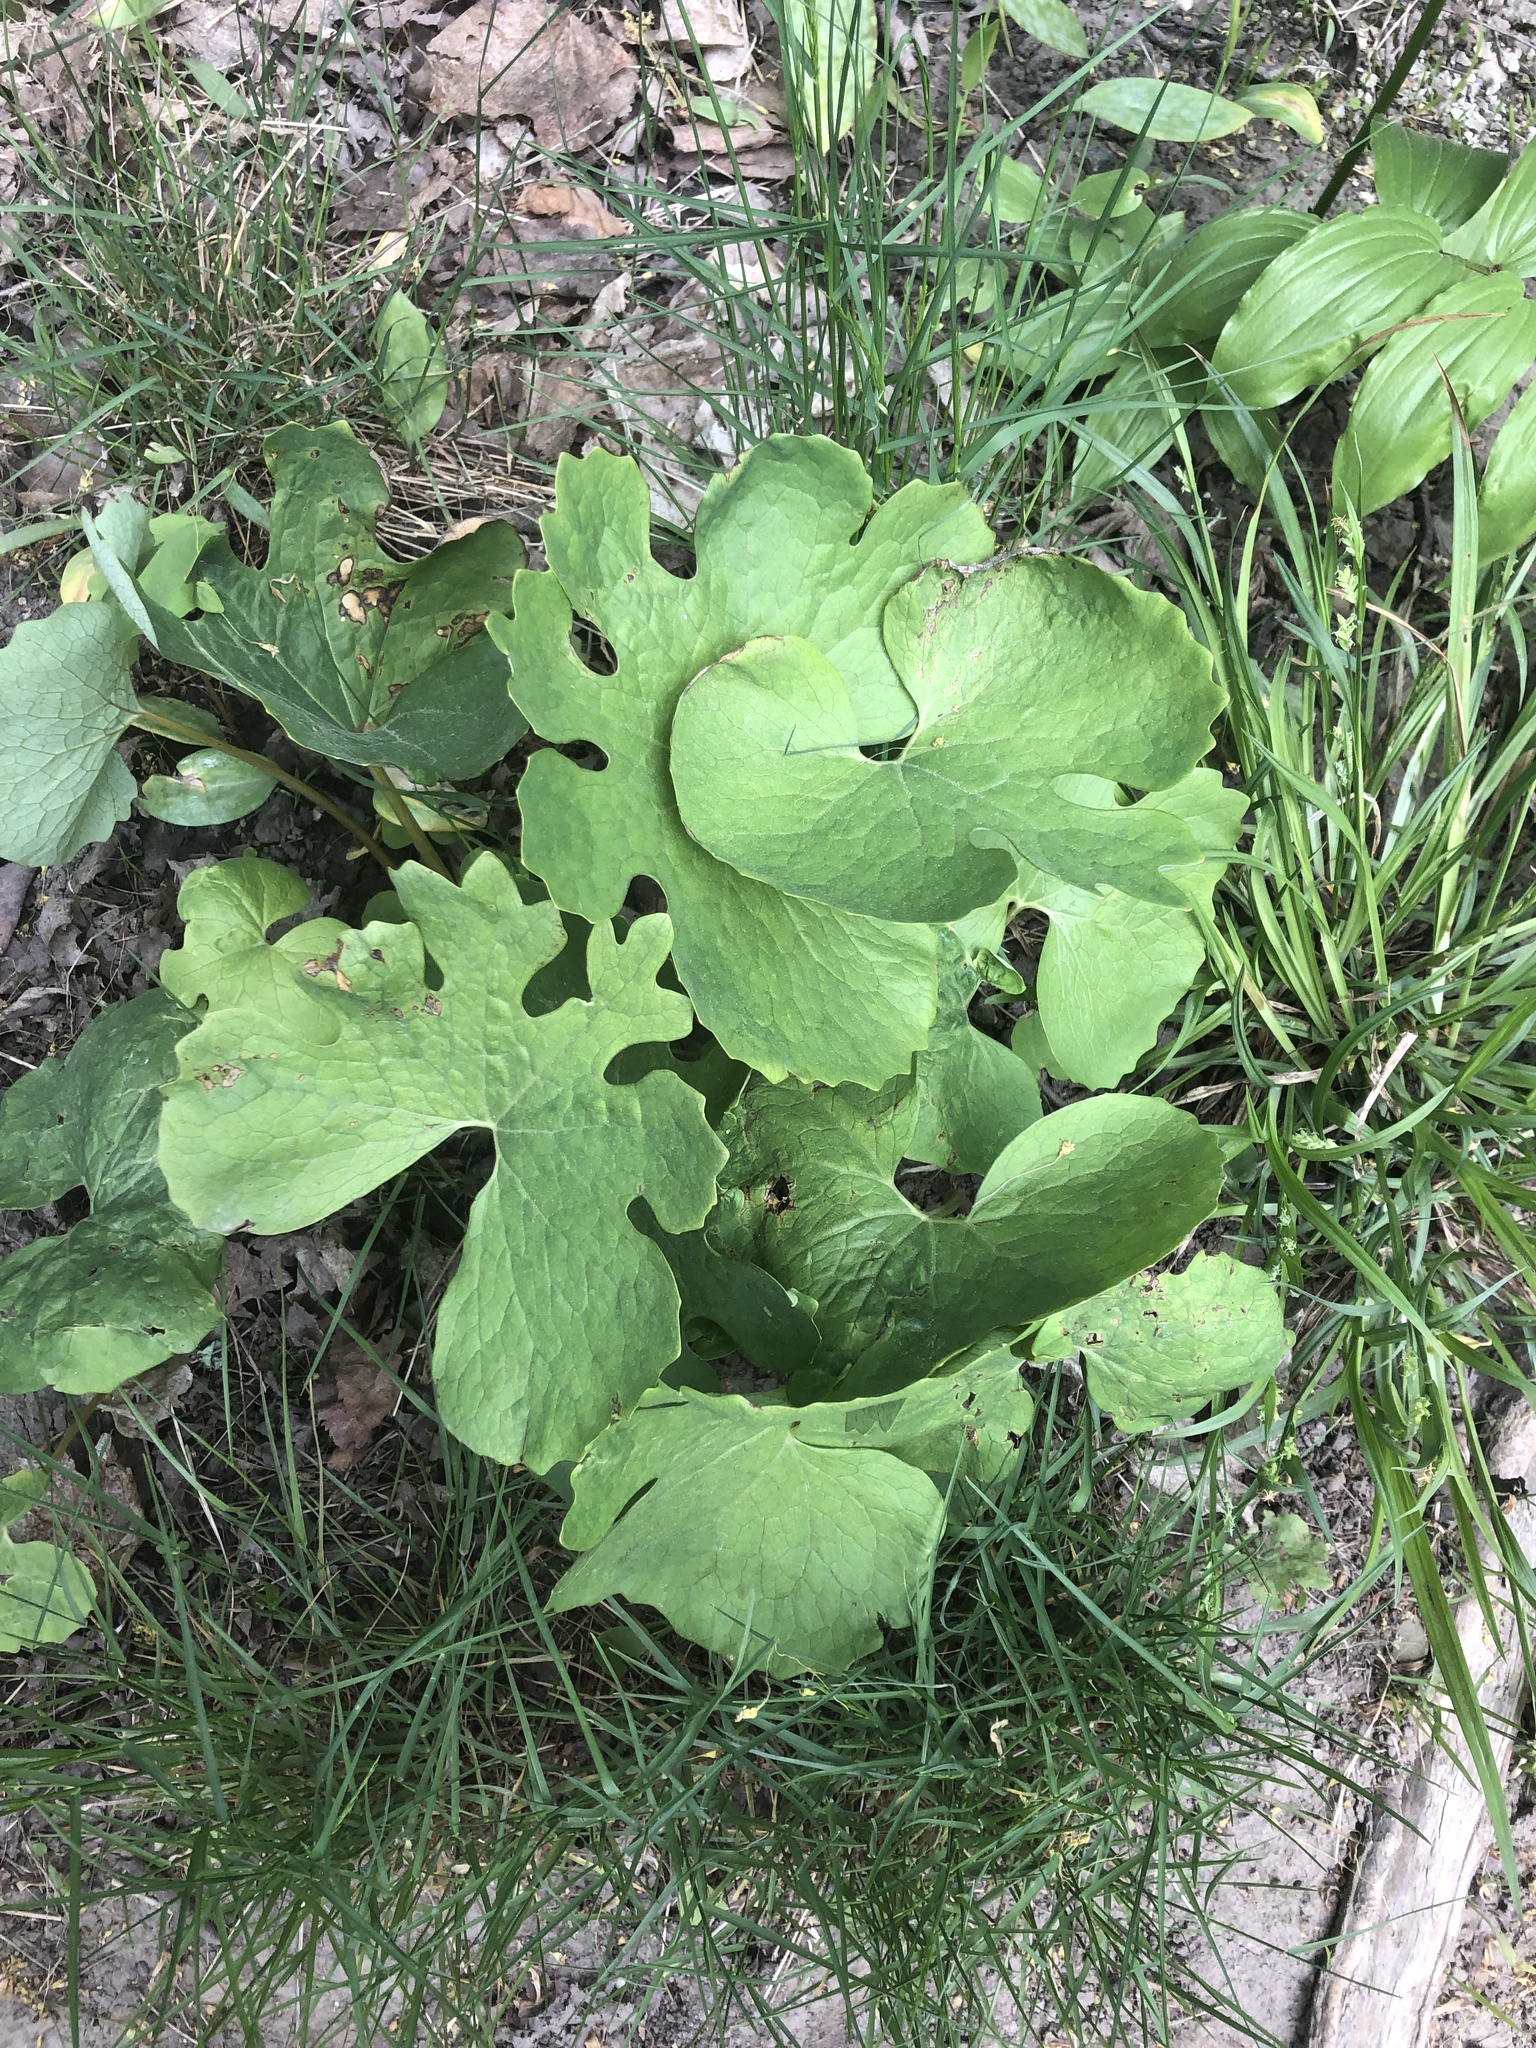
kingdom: Plantae
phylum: Tracheophyta
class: Magnoliopsida
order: Ranunculales
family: Papaveraceae
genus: Sanguinaria
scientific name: Sanguinaria canadensis
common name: Bloodroot
